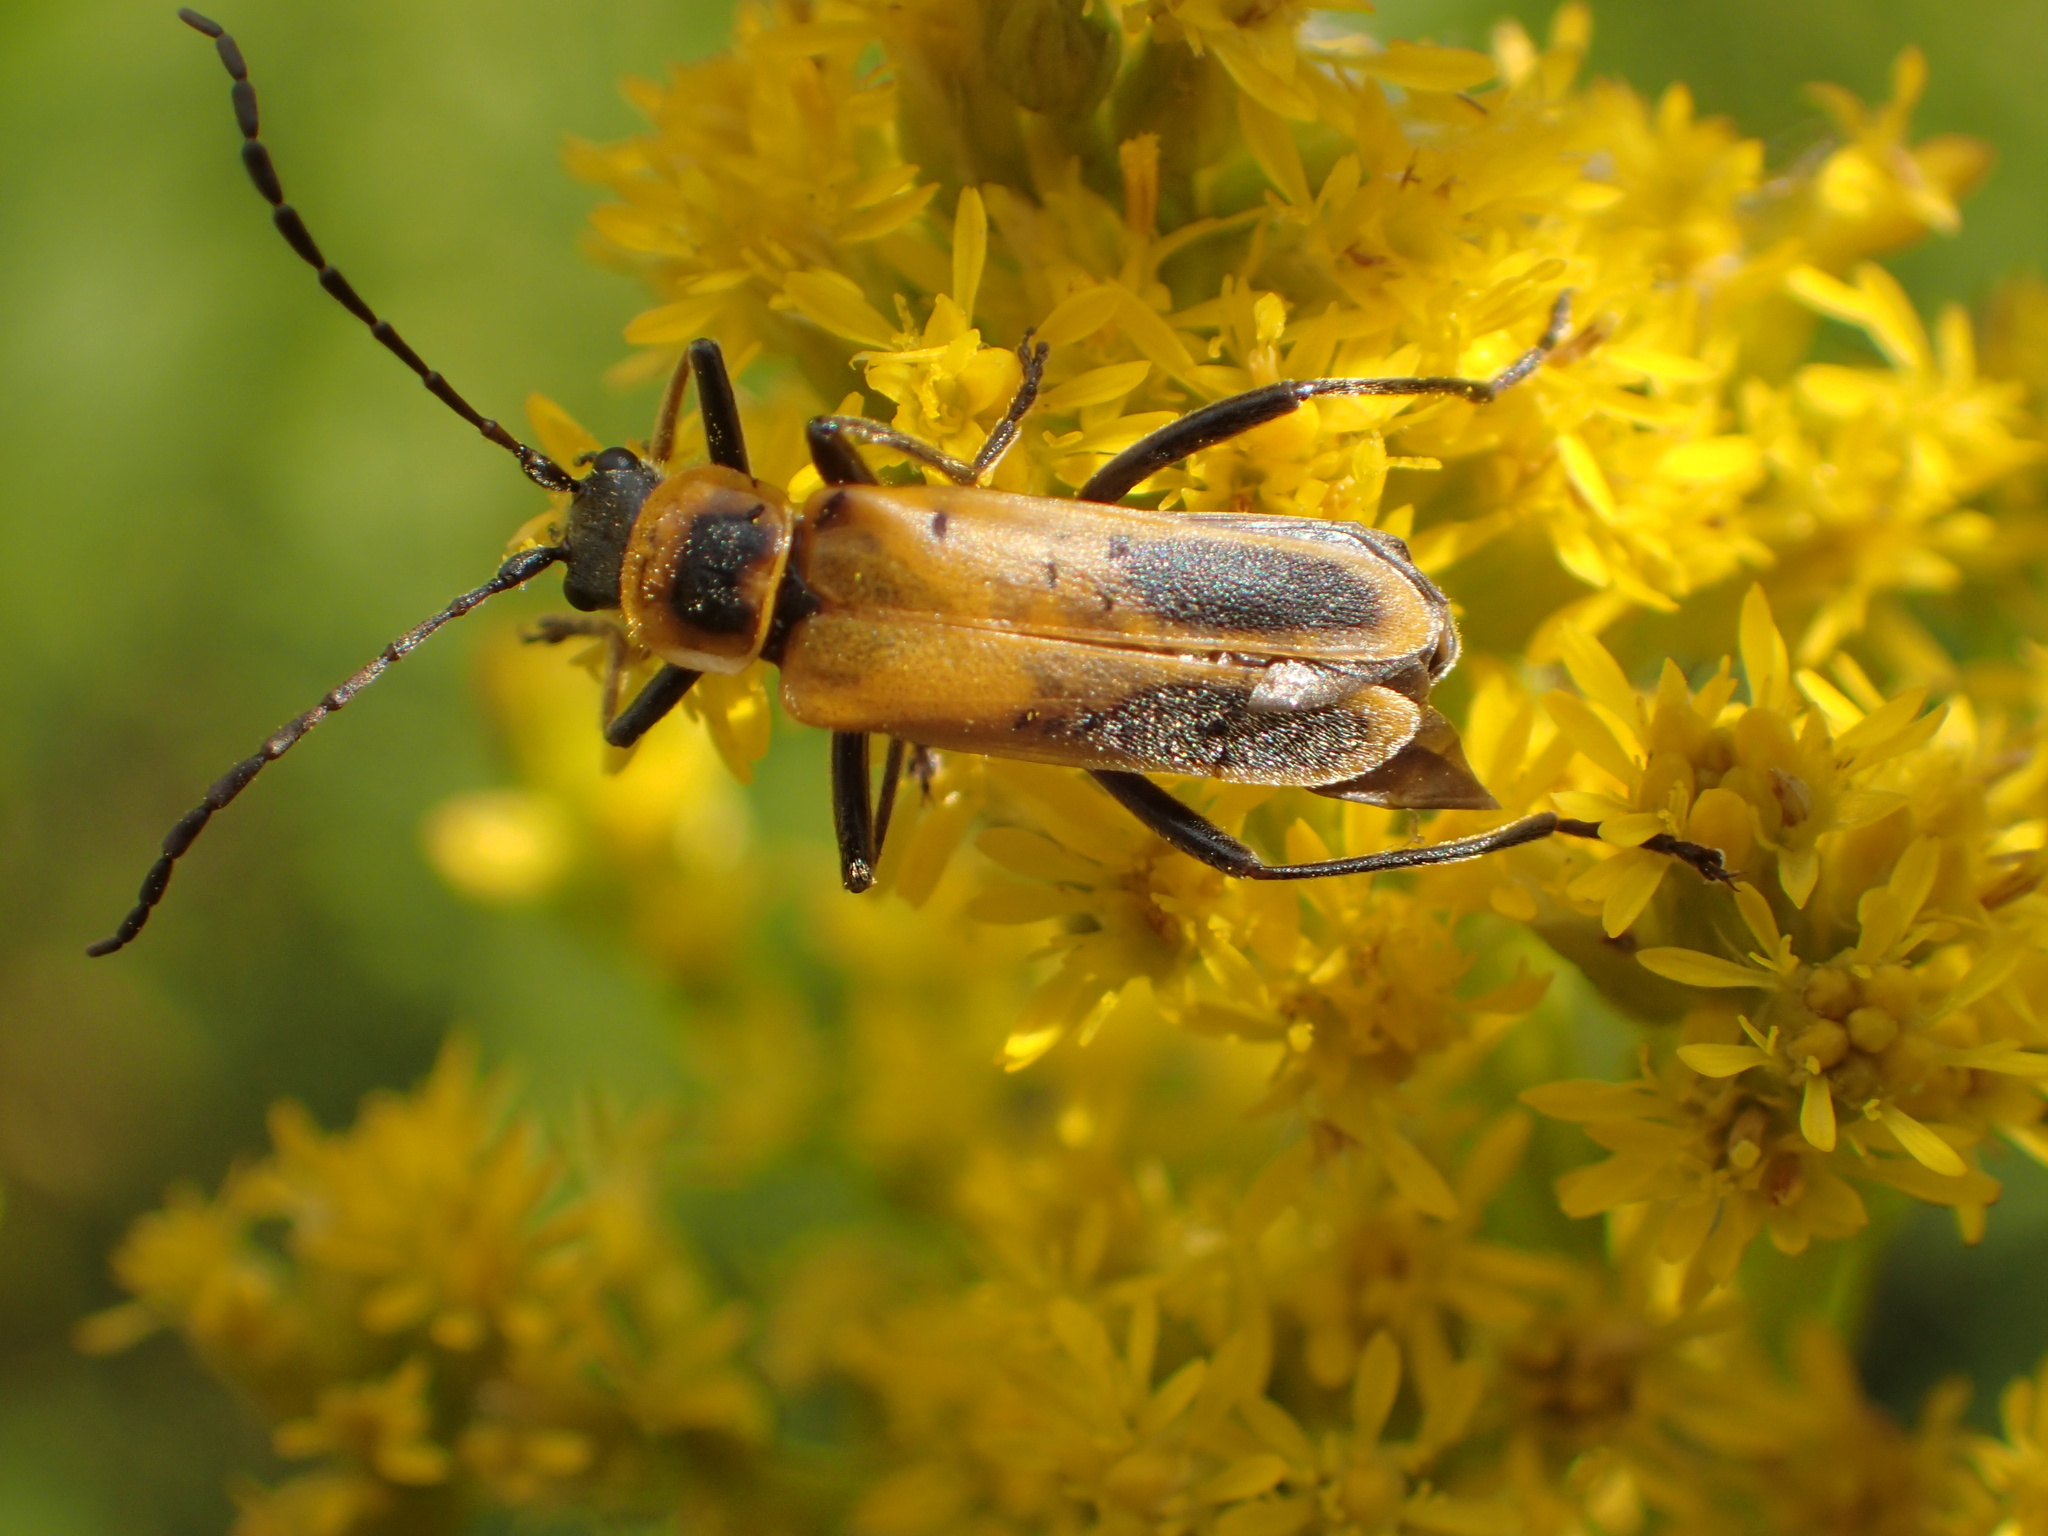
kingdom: Animalia
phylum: Arthropoda
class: Insecta
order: Coleoptera
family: Cantharidae
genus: Chauliognathus
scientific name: Chauliognathus pensylvanicus
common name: Goldenrod soldier beetle
